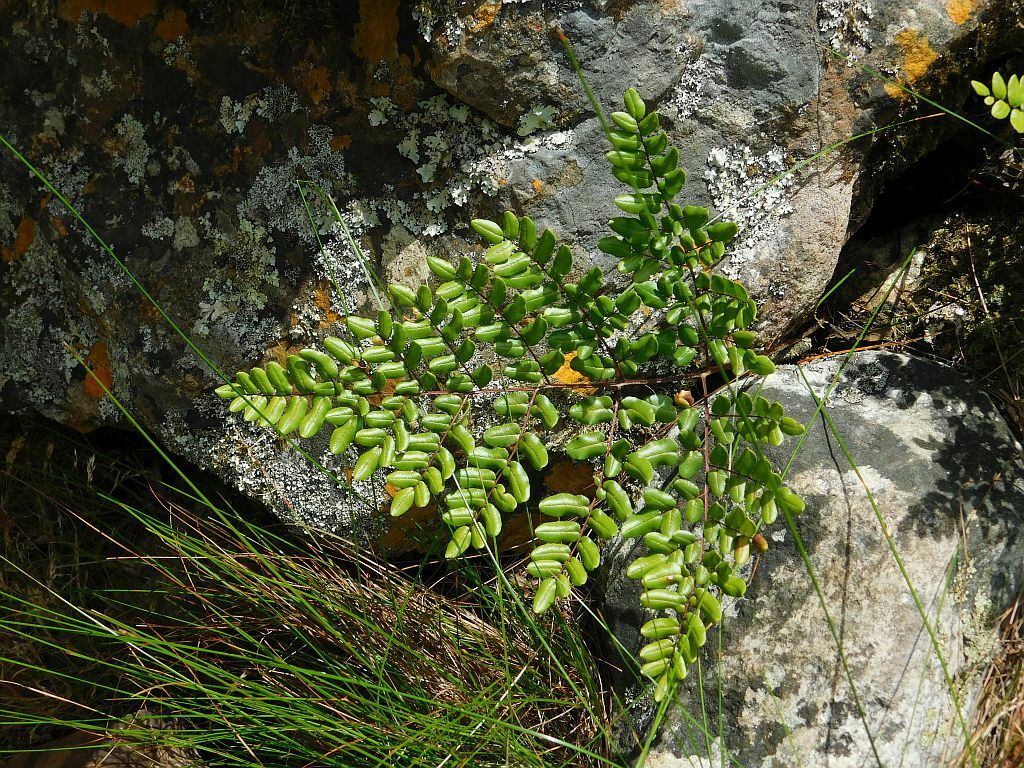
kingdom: Plantae
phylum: Tracheophyta
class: Polypodiopsida
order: Polypodiales
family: Pteridaceae
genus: Pellaea
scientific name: Pellaea pteroides
